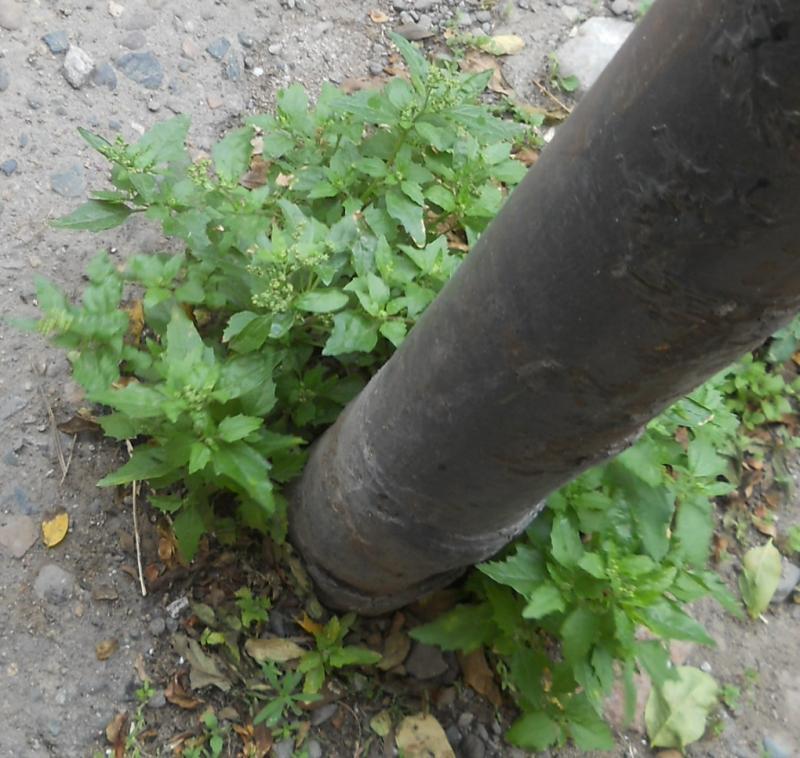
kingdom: Plantae
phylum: Tracheophyta
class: Magnoliopsida
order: Caryophyllales
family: Amaranthaceae
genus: Chenopodiastrum
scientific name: Chenopodiastrum murale
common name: Sowbane
